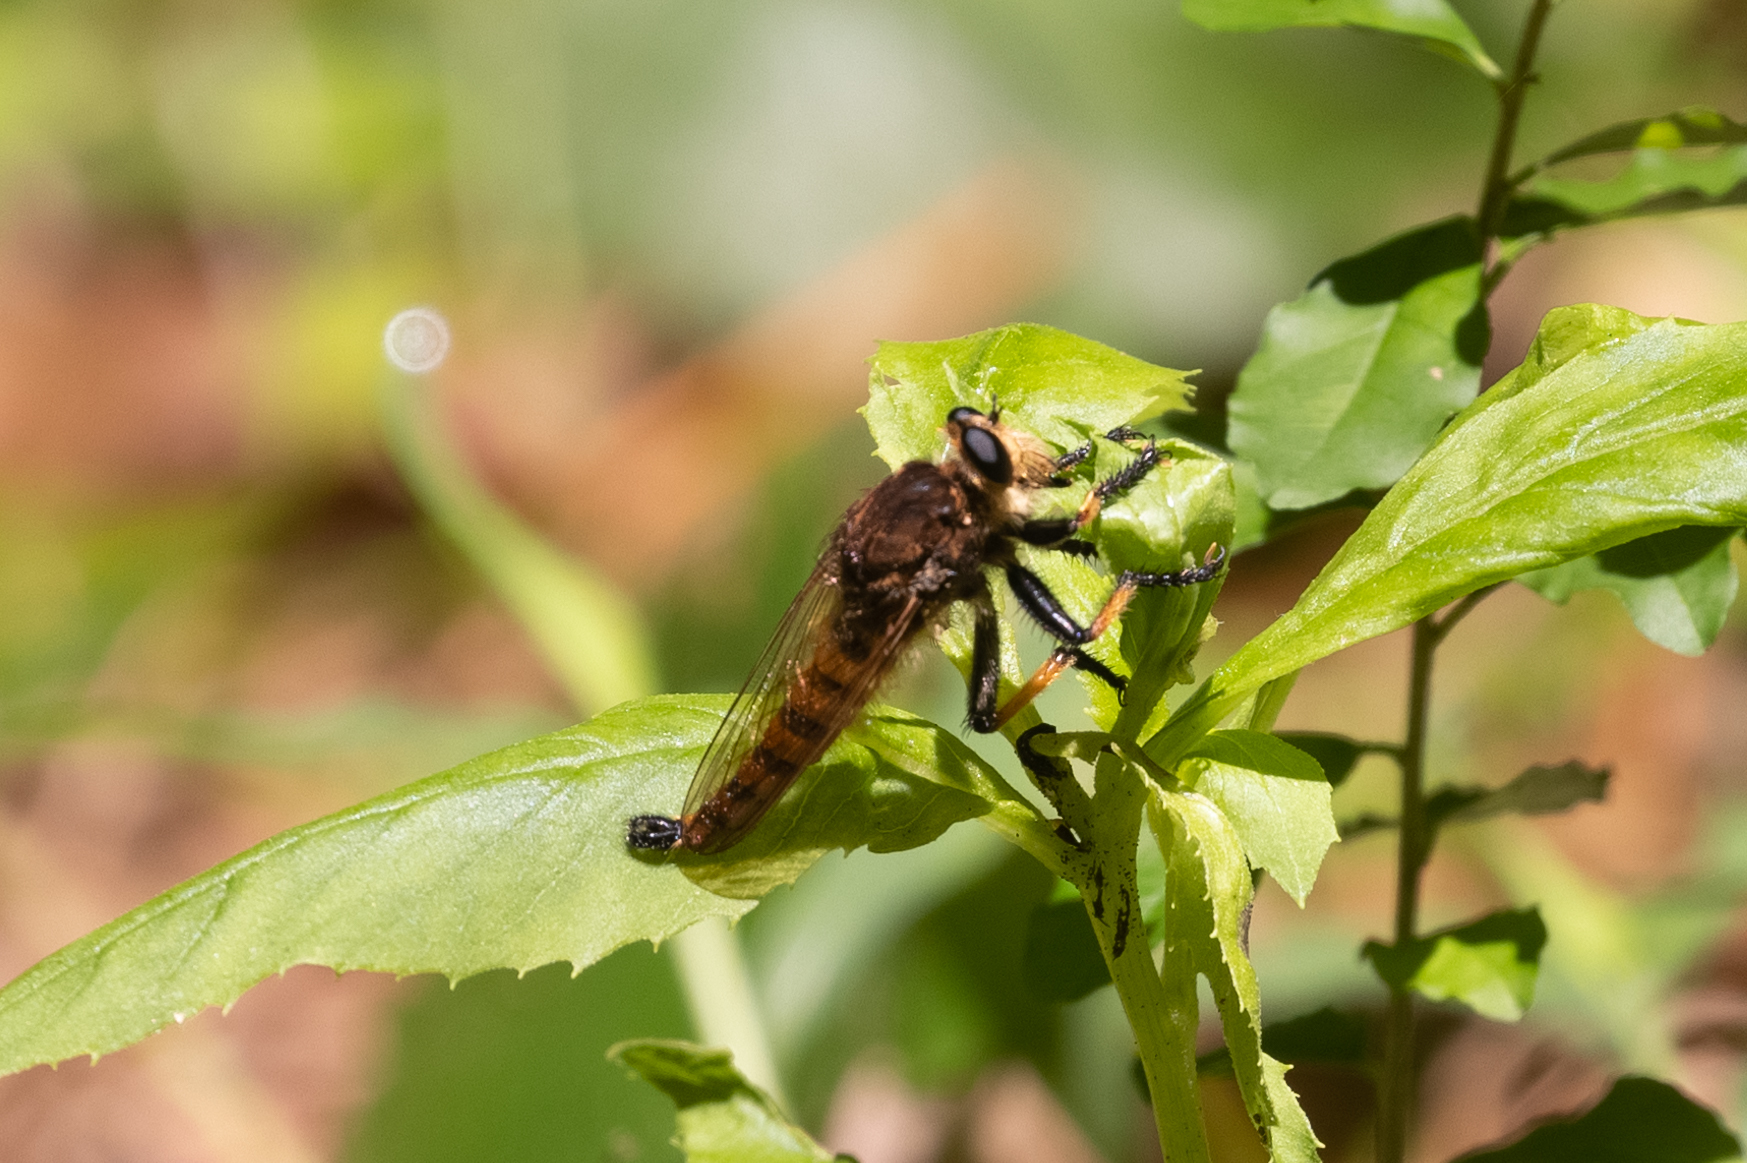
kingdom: Animalia
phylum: Arthropoda
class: Insecta
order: Diptera
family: Asilidae
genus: Promachus
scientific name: Promachus rufipes
